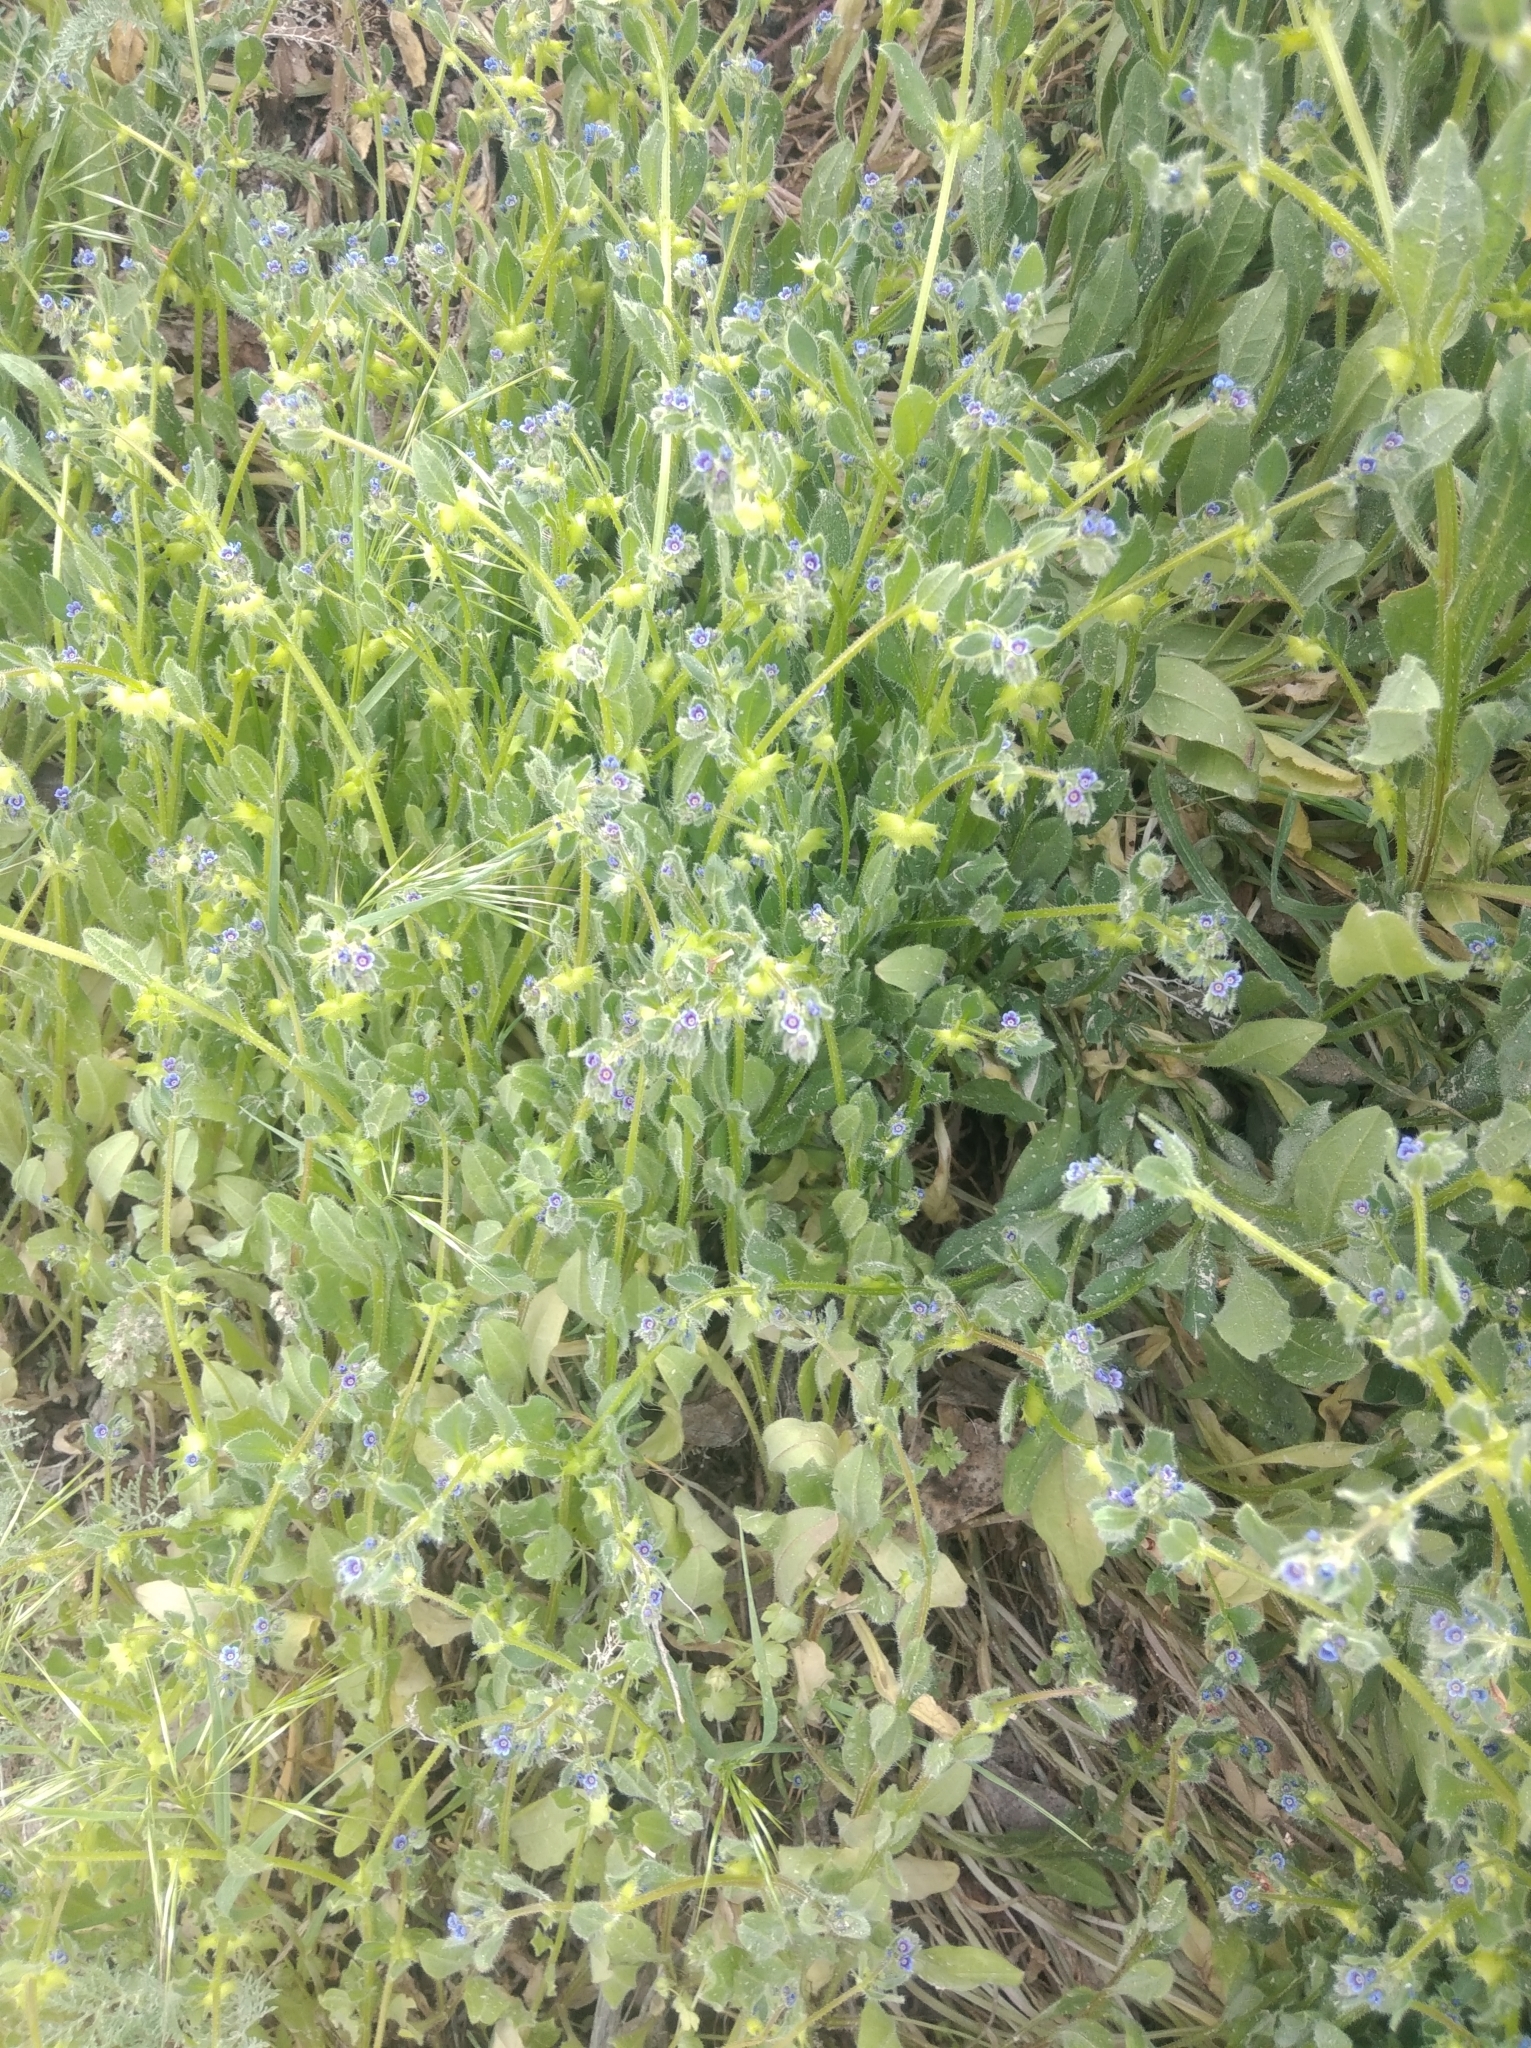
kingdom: Plantae
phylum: Tracheophyta
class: Magnoliopsida
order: Boraginales
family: Boraginaceae
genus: Asperugo
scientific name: Asperugo procumbens
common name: Madwort
